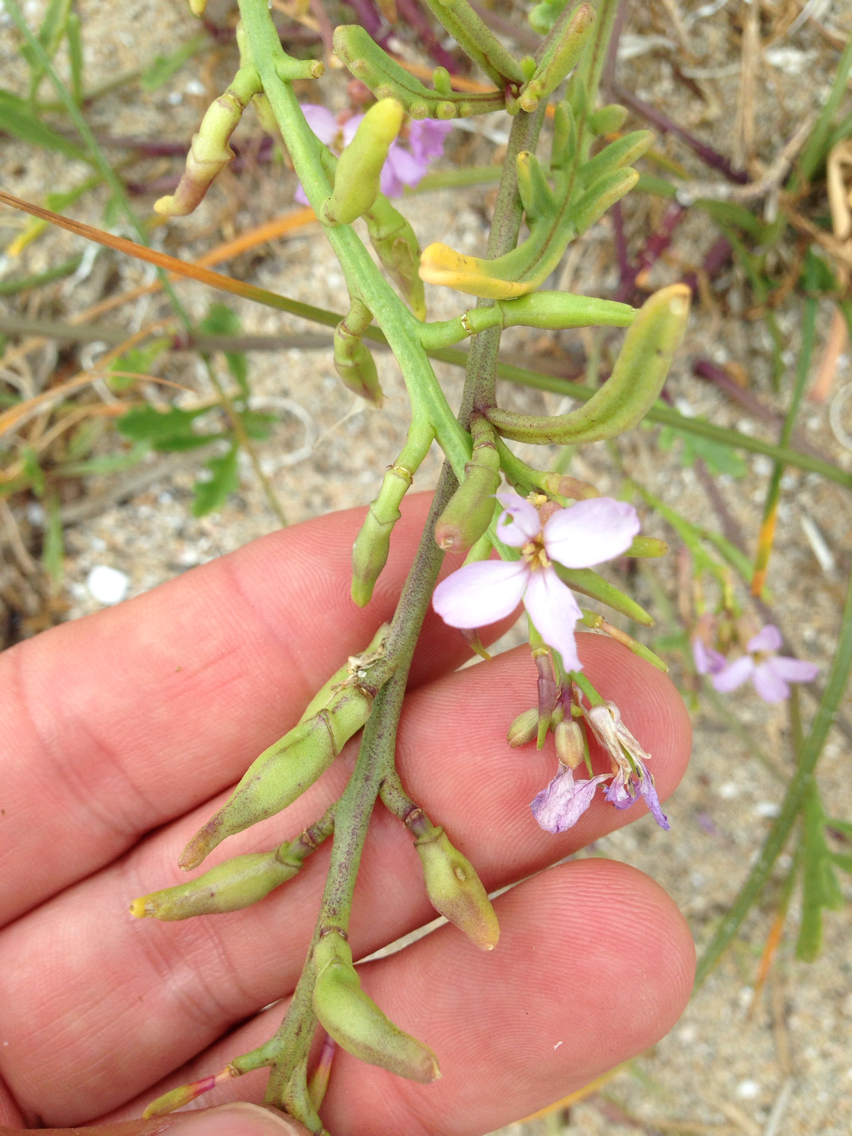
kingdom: Plantae
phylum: Tracheophyta
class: Magnoliopsida
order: Brassicales
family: Brassicaceae
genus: Cakile
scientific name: Cakile maritima
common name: Sea rocket
